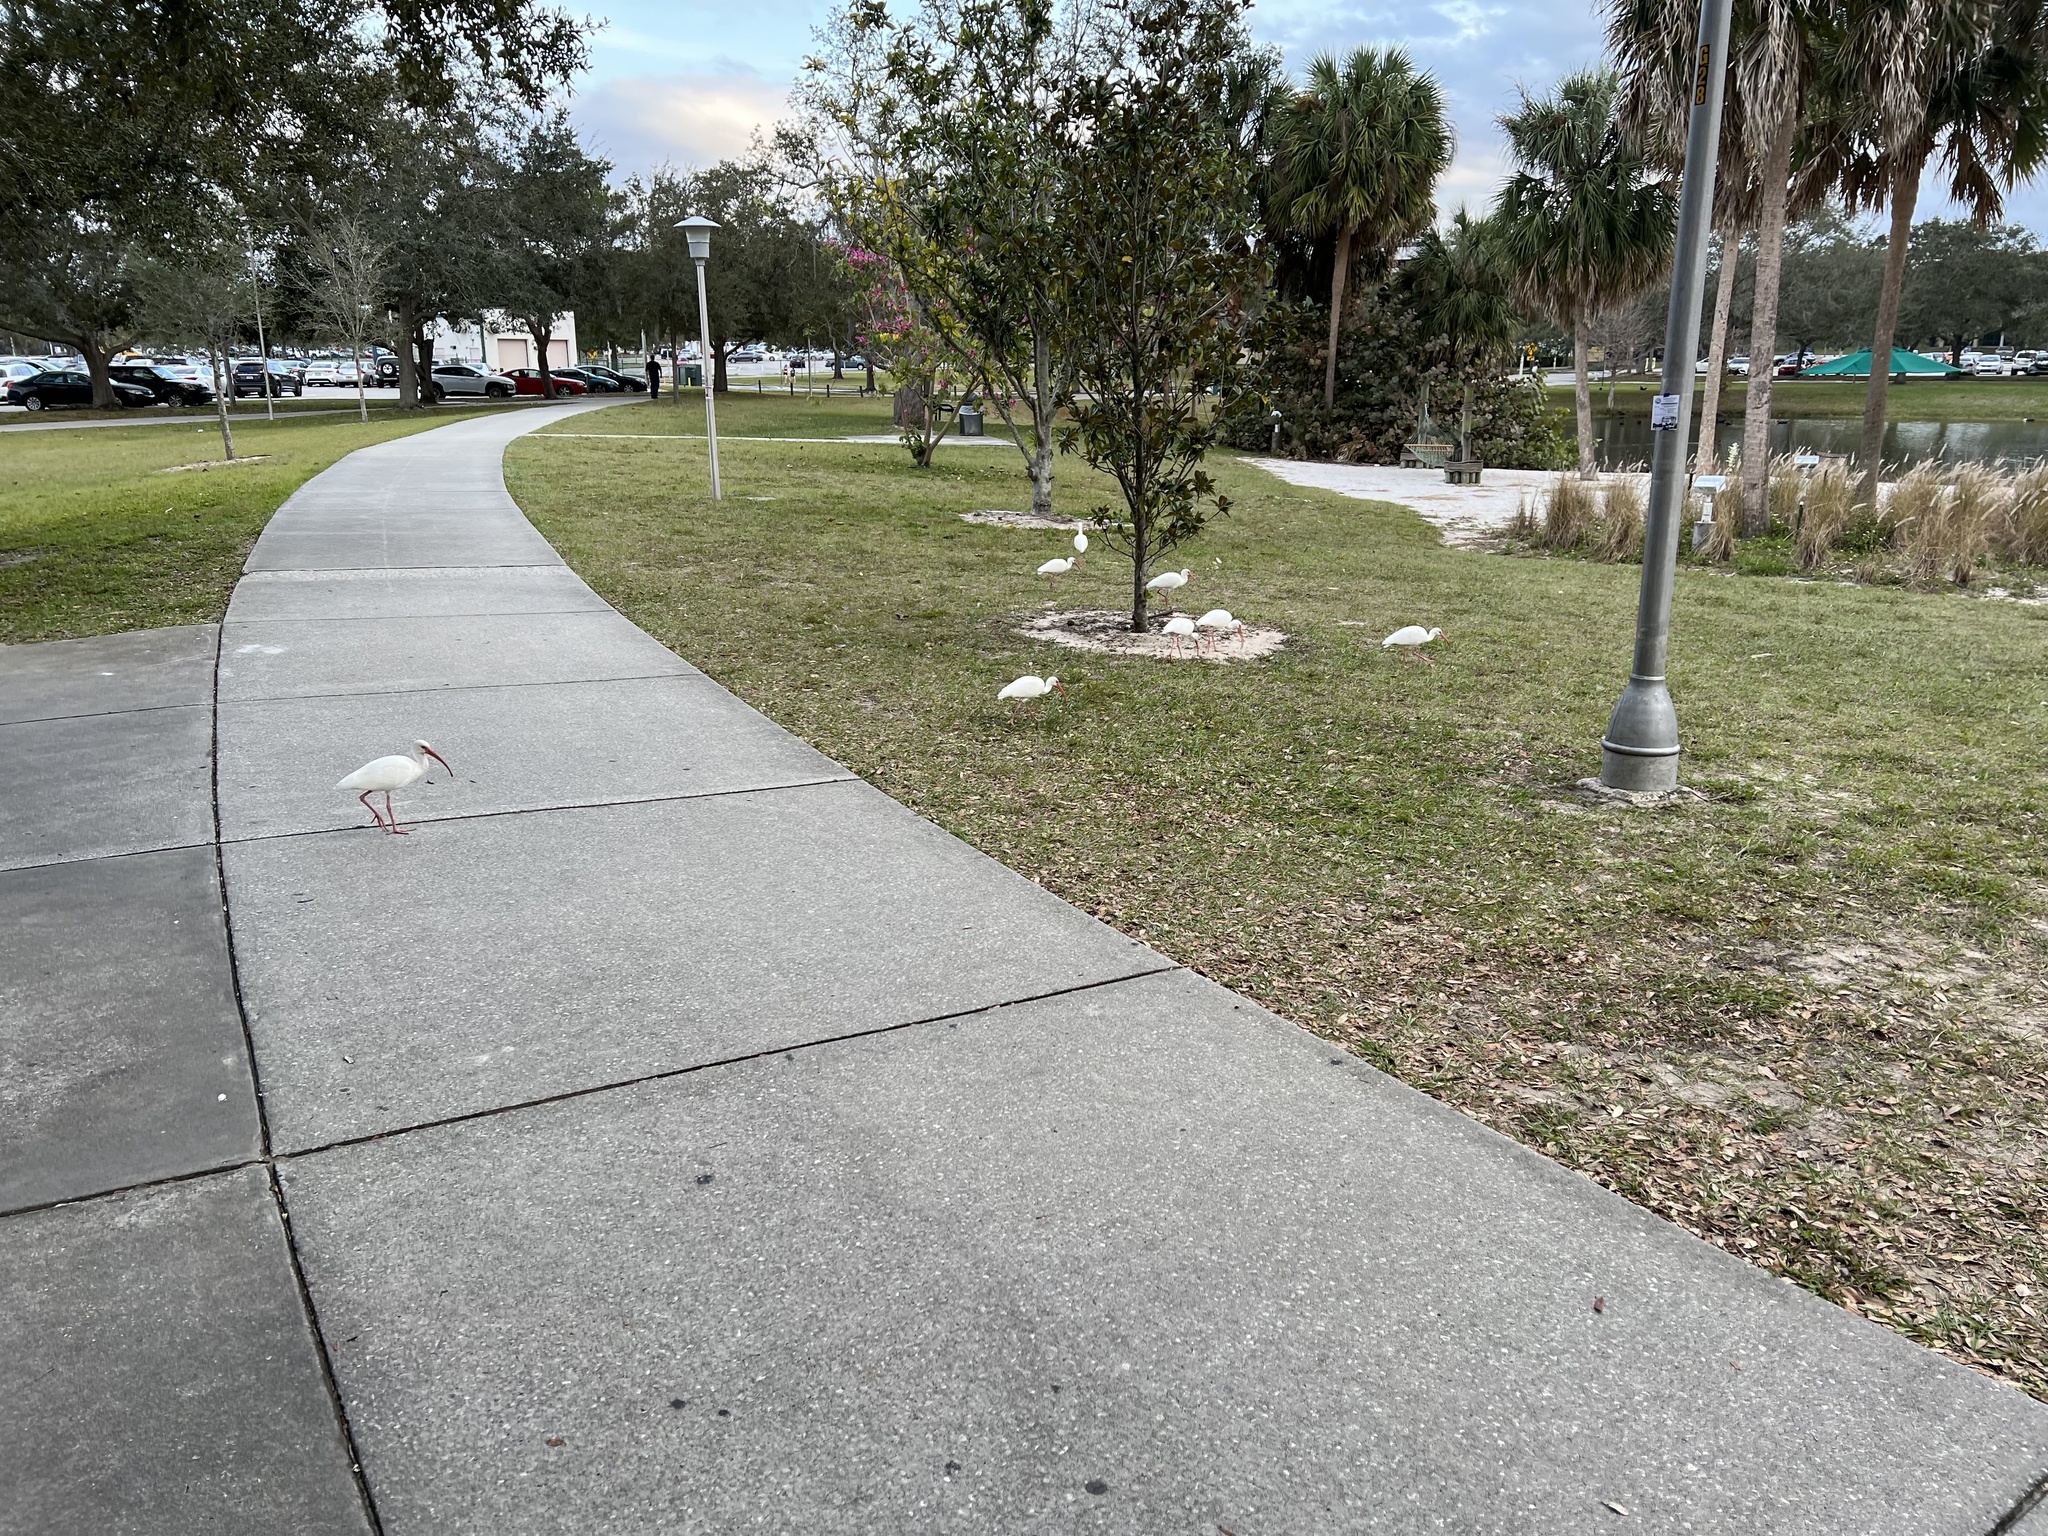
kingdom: Animalia
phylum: Chordata
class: Aves
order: Pelecaniformes
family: Threskiornithidae
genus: Eudocimus
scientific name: Eudocimus albus
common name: White ibis
